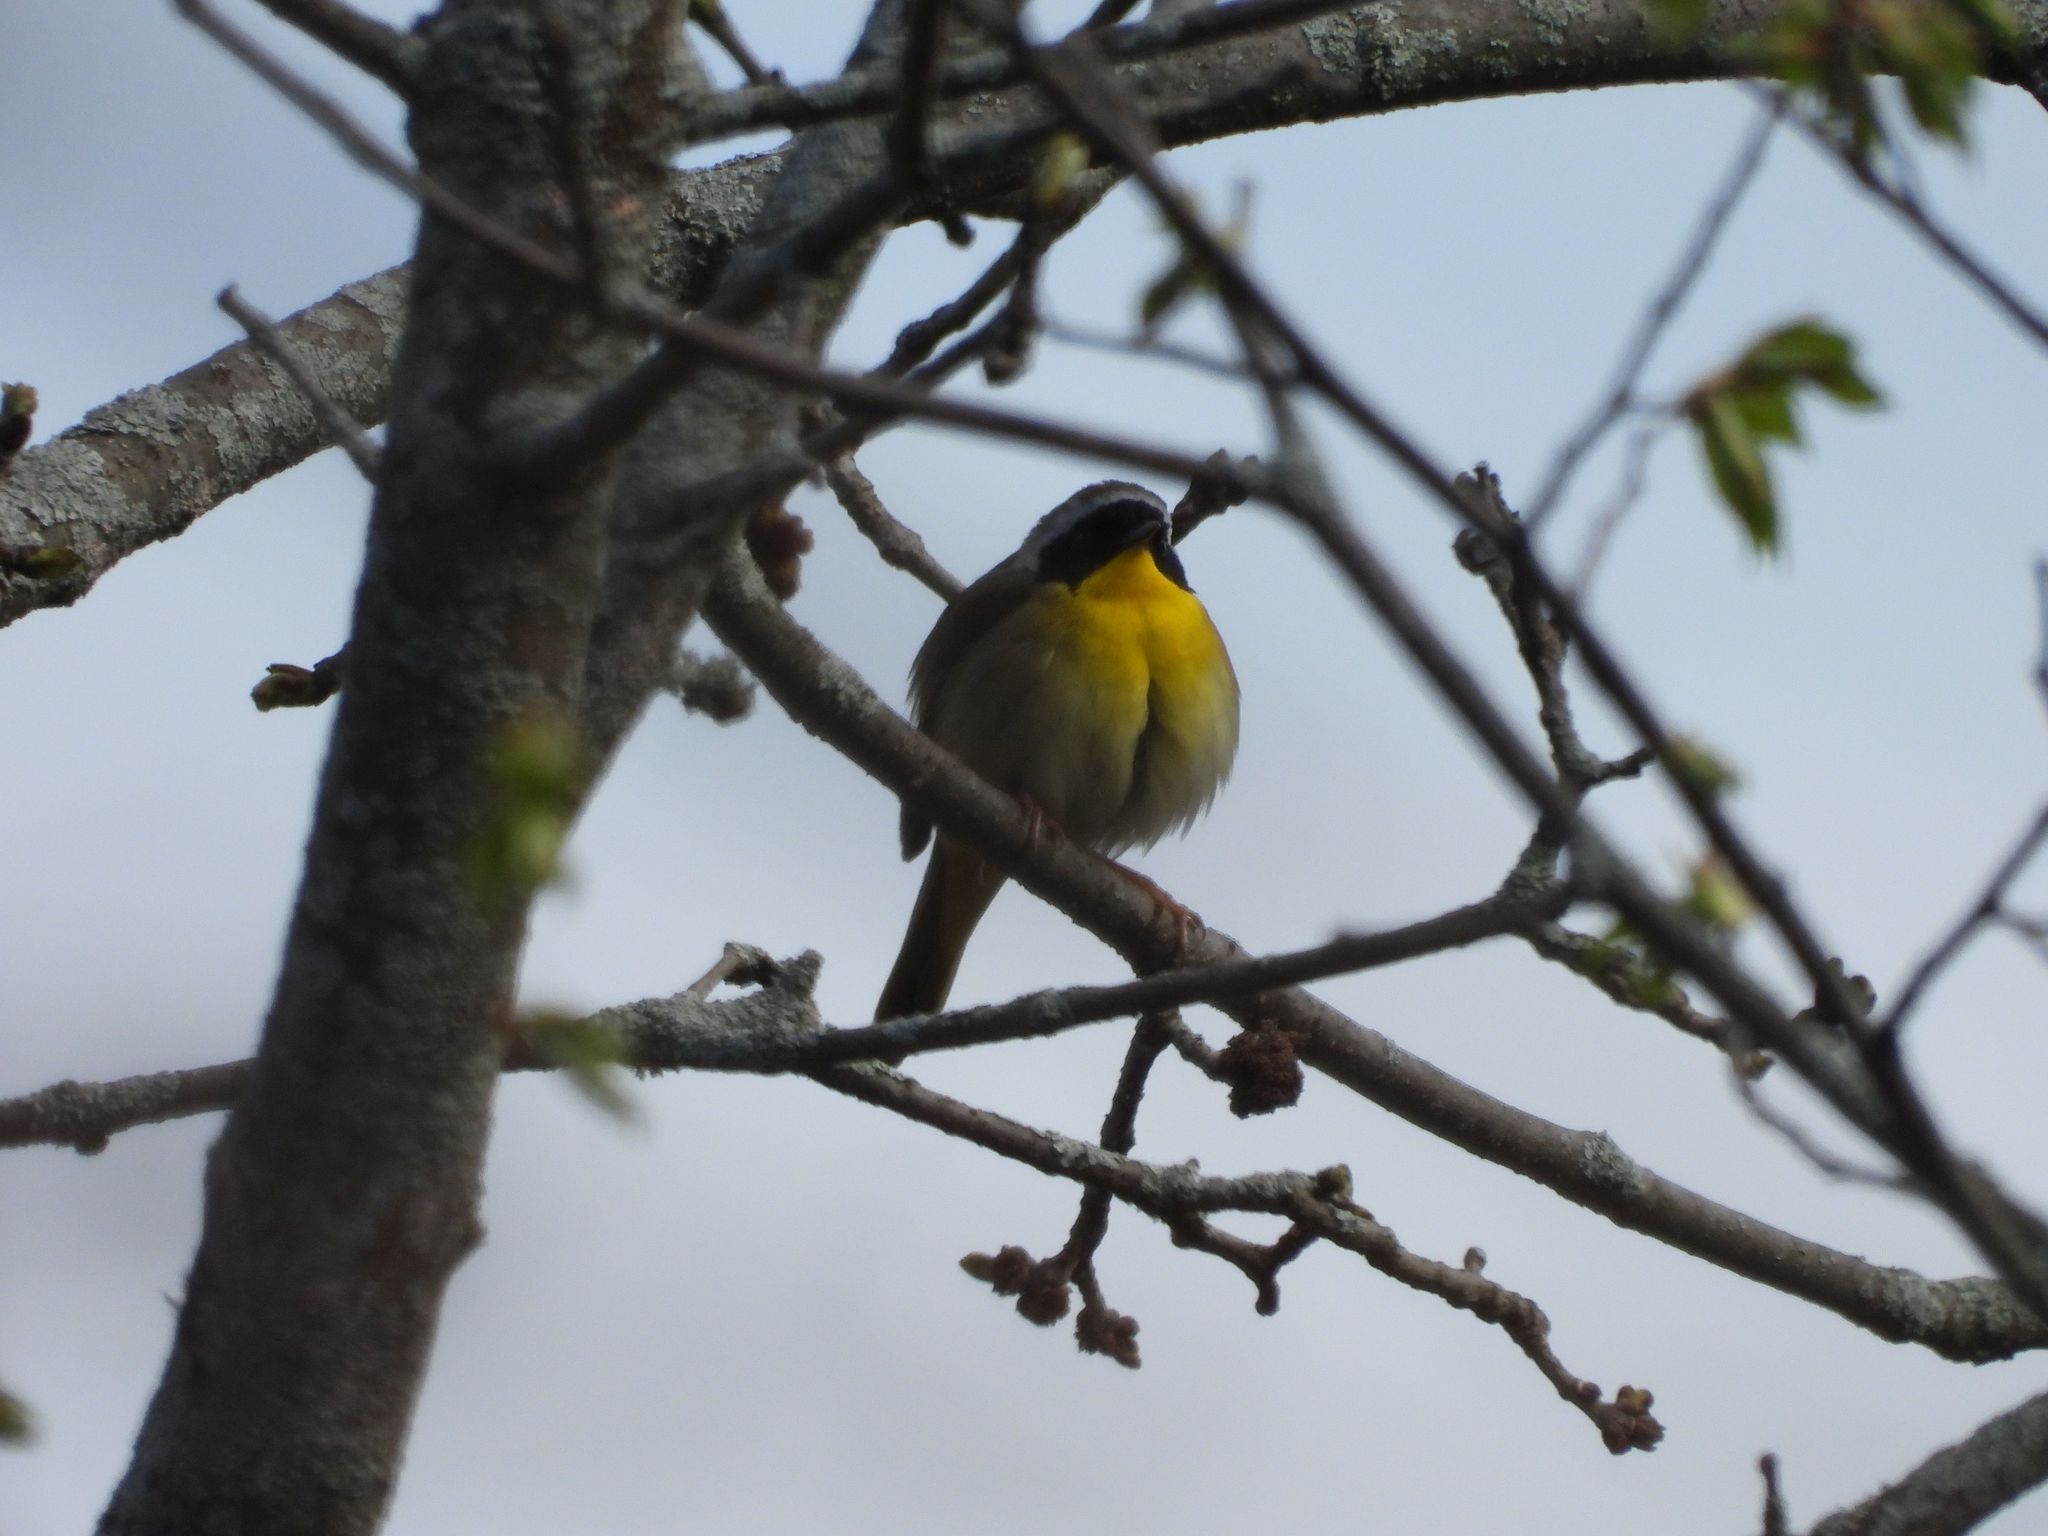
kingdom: Animalia
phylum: Chordata
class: Aves
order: Passeriformes
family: Parulidae
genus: Geothlypis
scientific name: Geothlypis trichas
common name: Common yellowthroat
